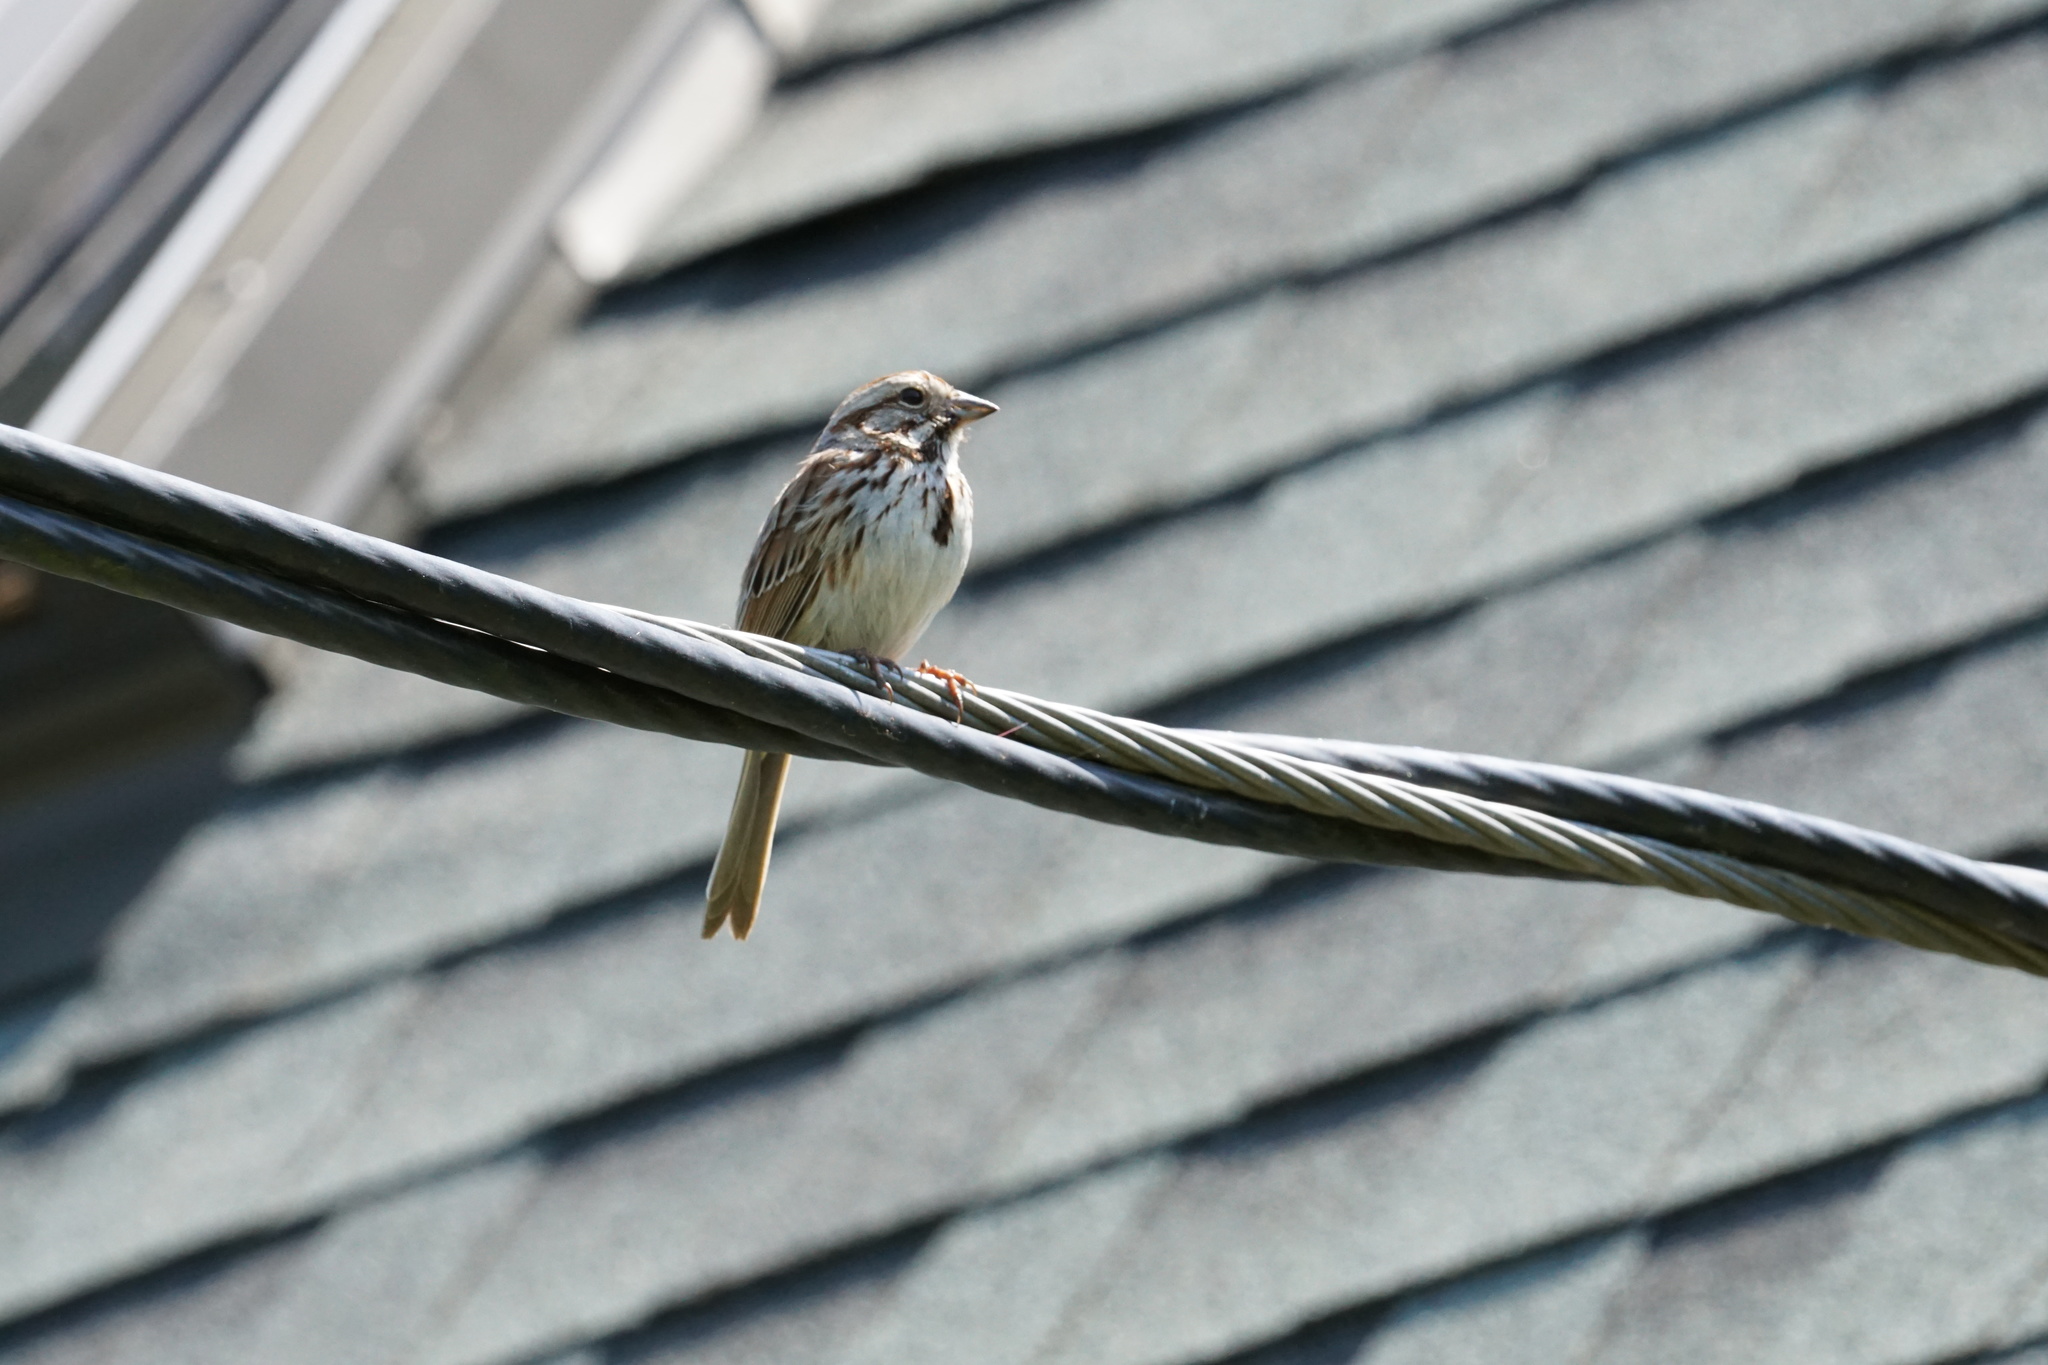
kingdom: Animalia
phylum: Chordata
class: Aves
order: Passeriformes
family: Passerellidae
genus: Melospiza
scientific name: Melospiza melodia
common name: Song sparrow
